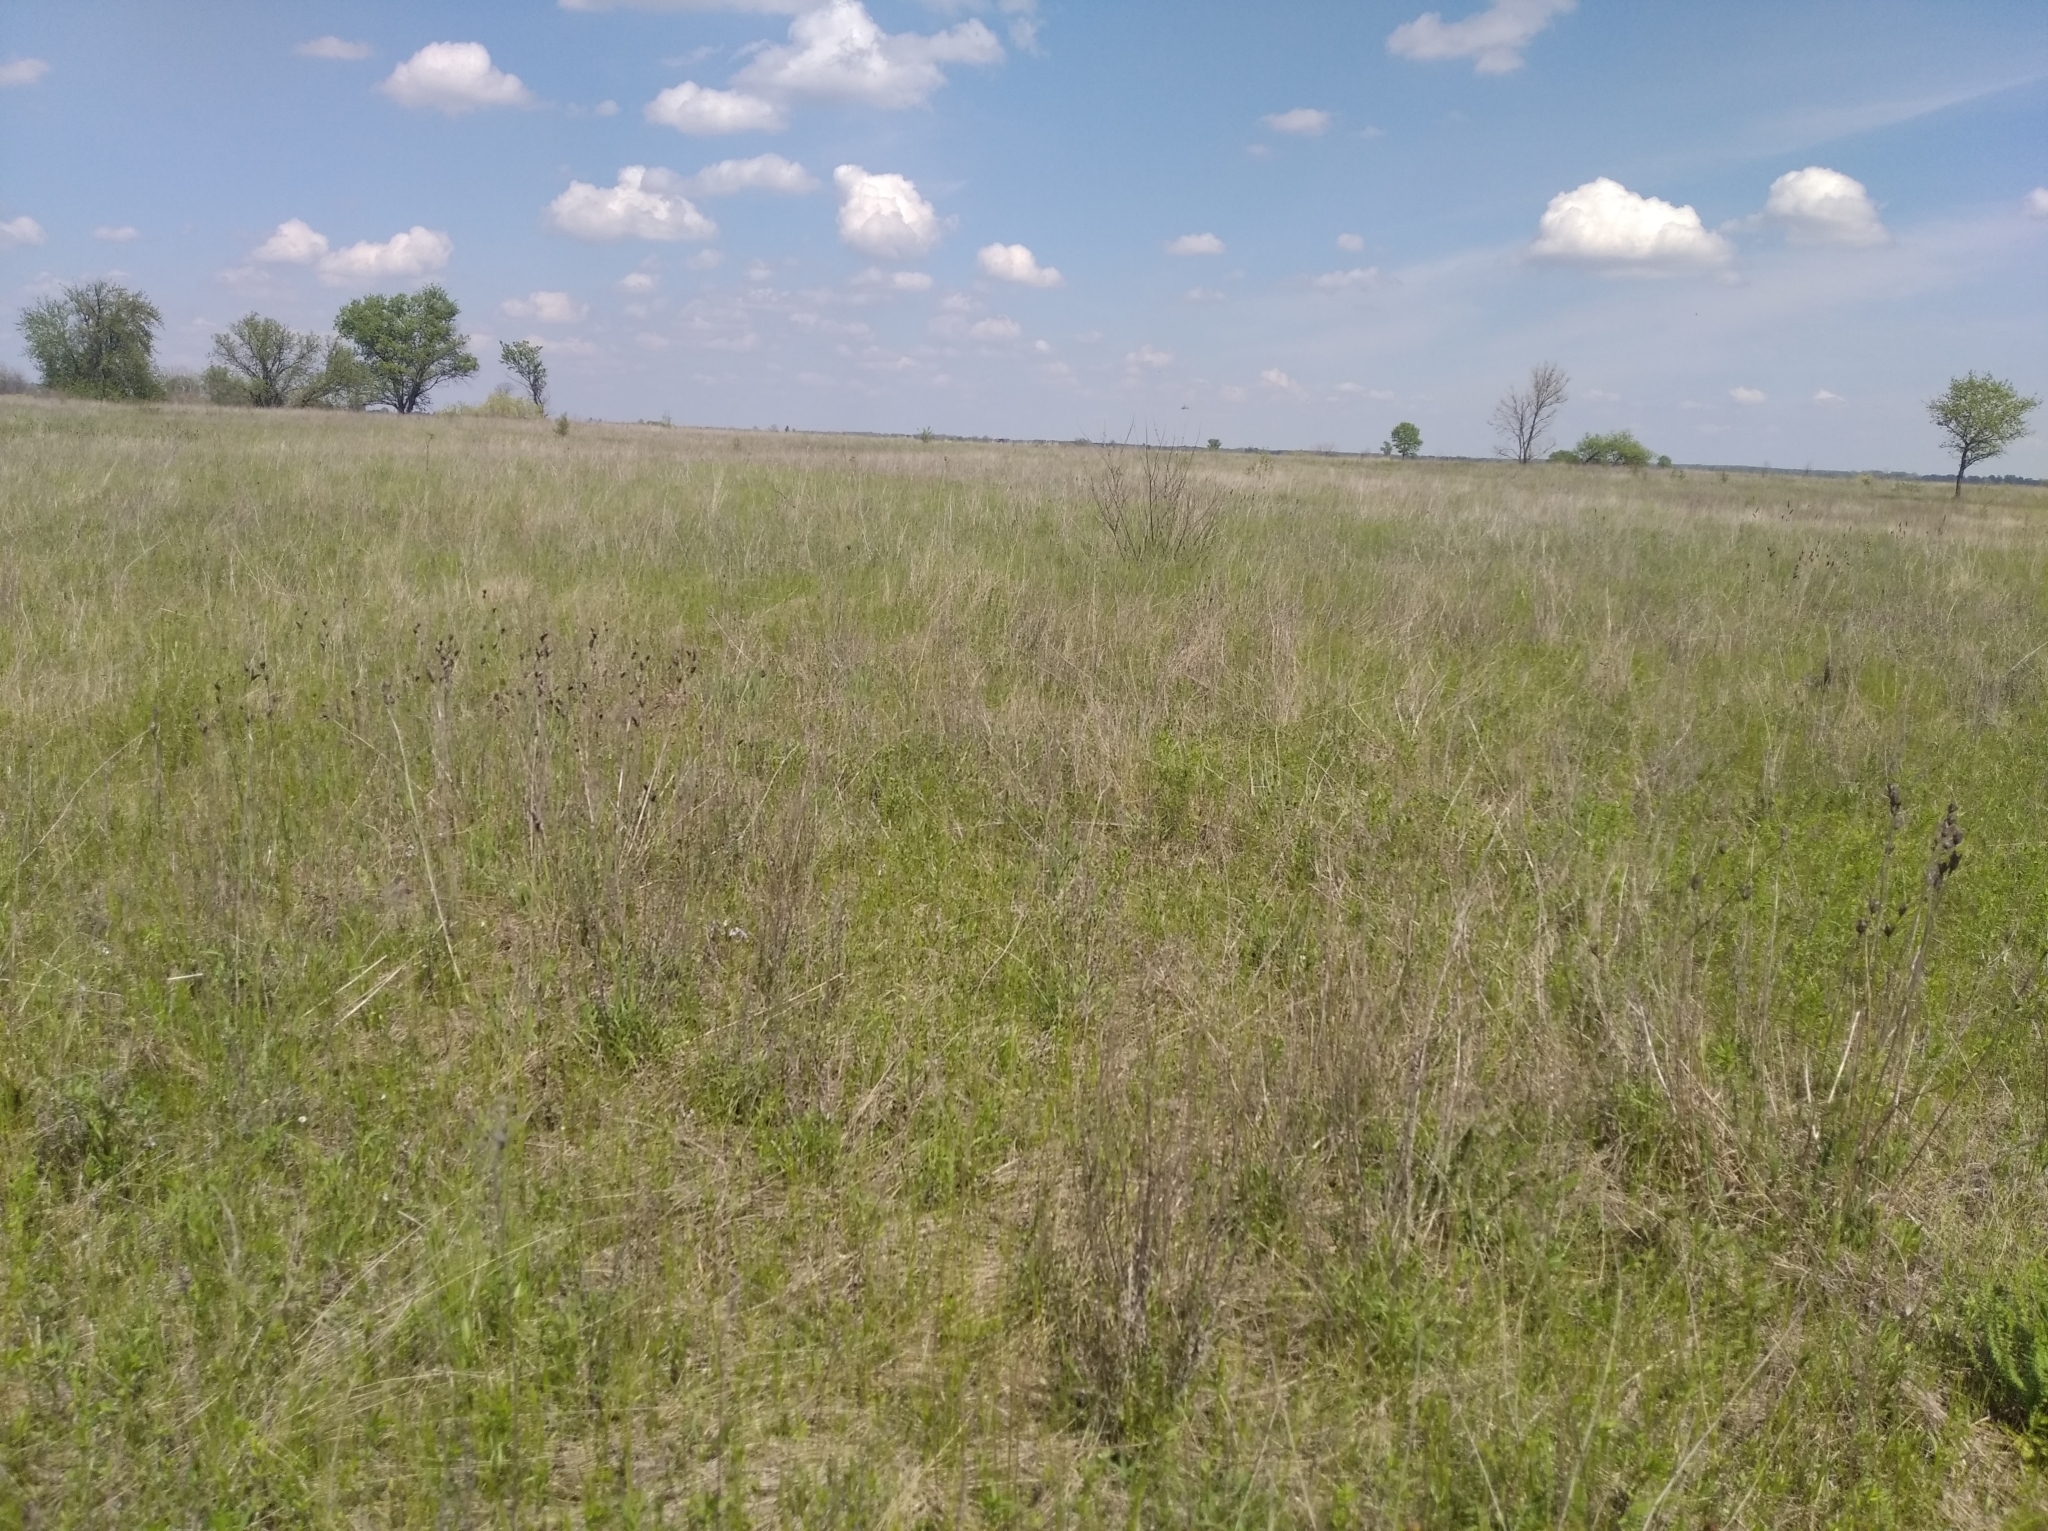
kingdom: Plantae
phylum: Tracheophyta
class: Liliopsida
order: Asparagales
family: Iridaceae
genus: Iris
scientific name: Iris sibirica
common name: Siberian iris
